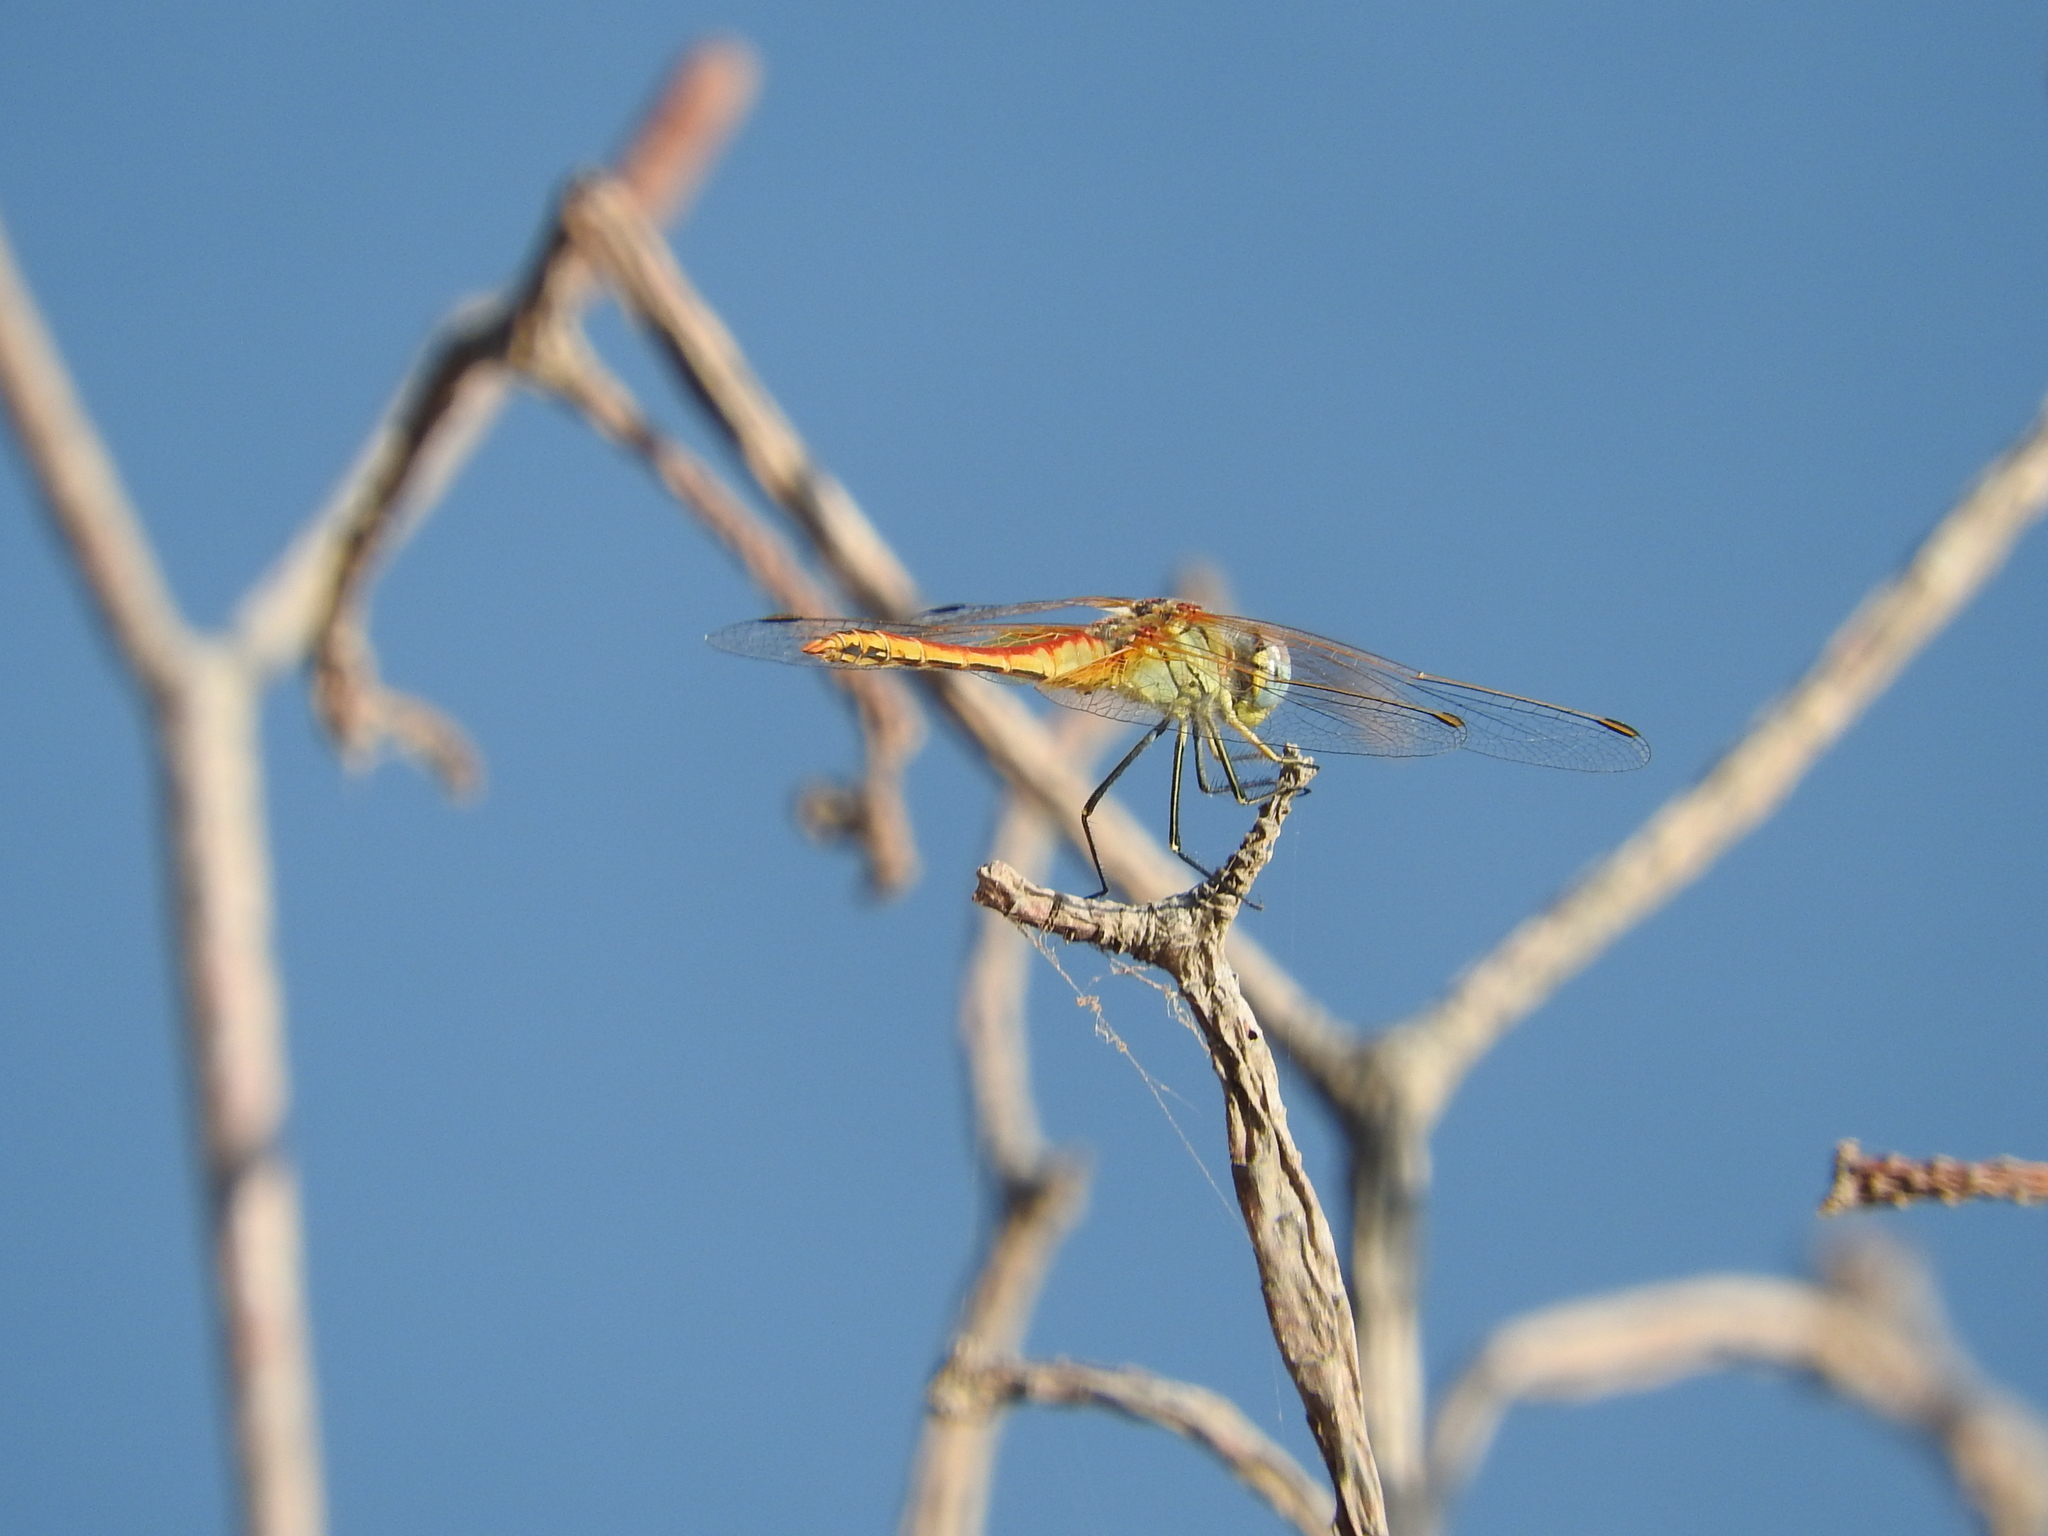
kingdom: Animalia
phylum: Arthropoda
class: Insecta
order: Odonata
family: Libellulidae
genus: Sympetrum
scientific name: Sympetrum fonscolombii
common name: Red-veined darter
